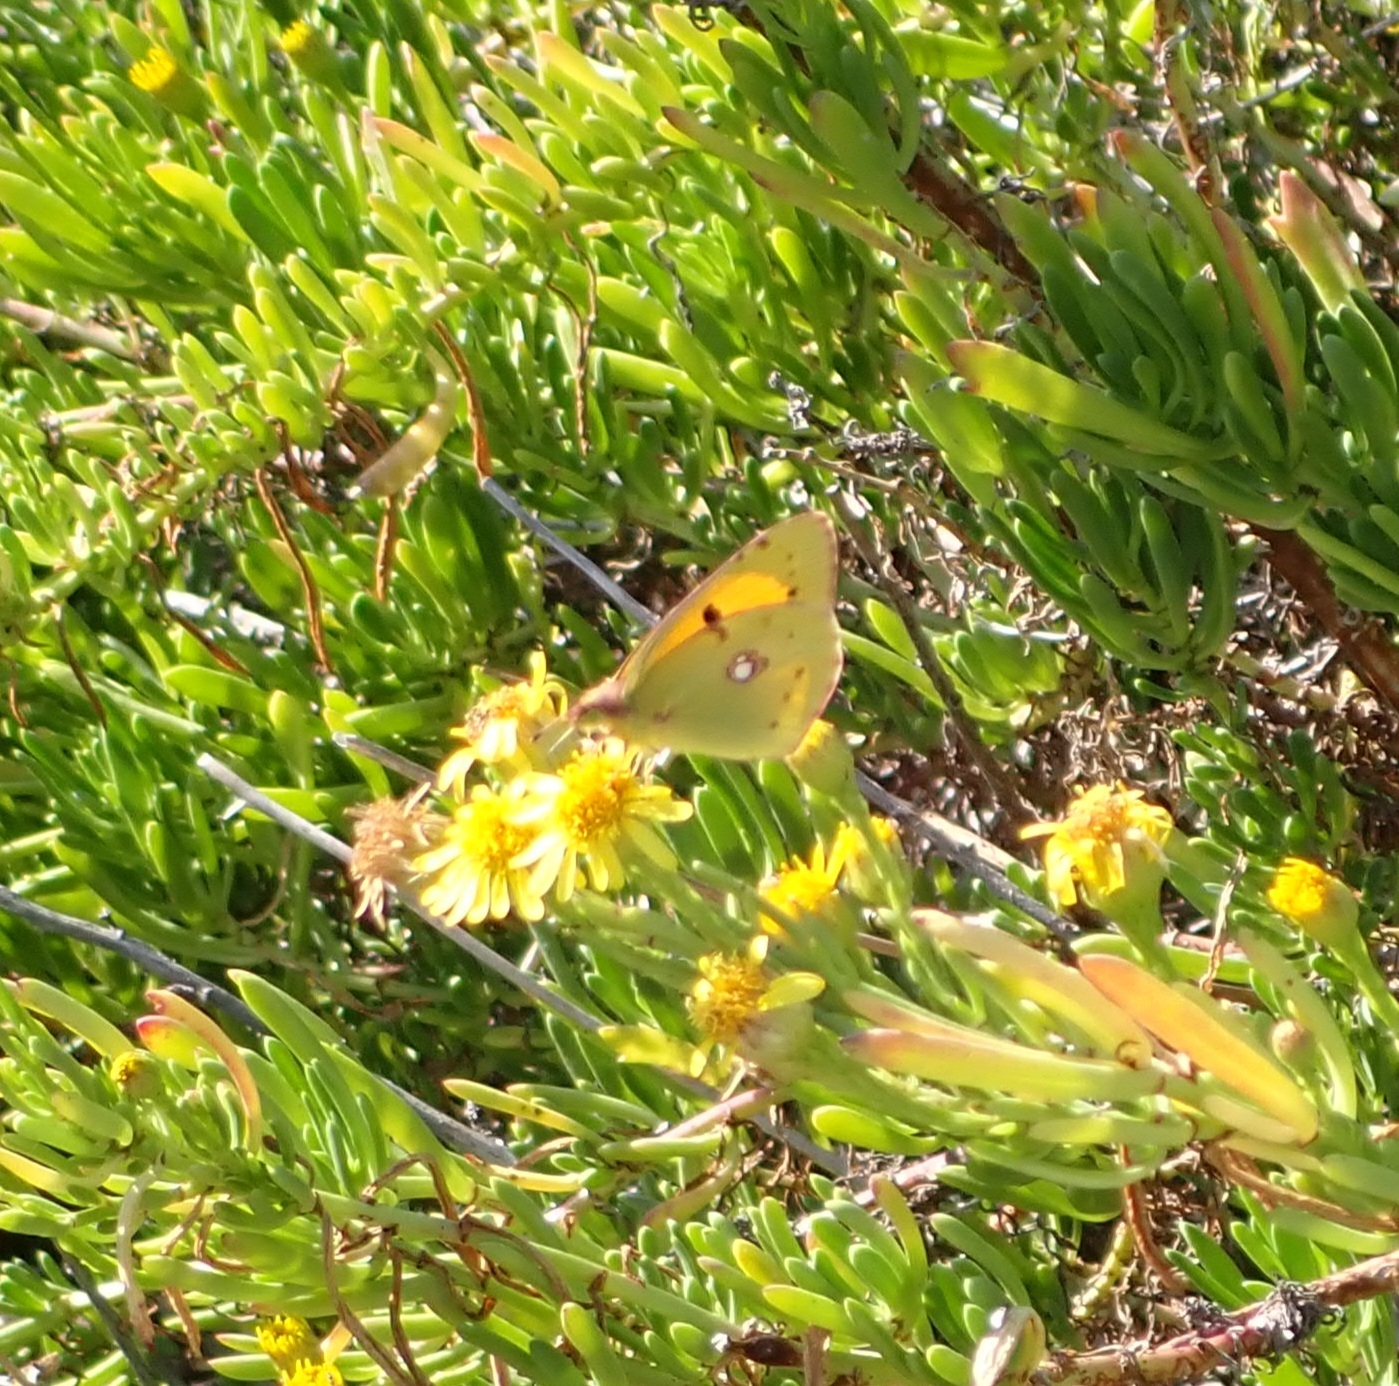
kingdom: Animalia
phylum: Arthropoda
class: Insecta
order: Lepidoptera
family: Pieridae
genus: Colias
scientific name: Colias croceus
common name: Clouded yellow
